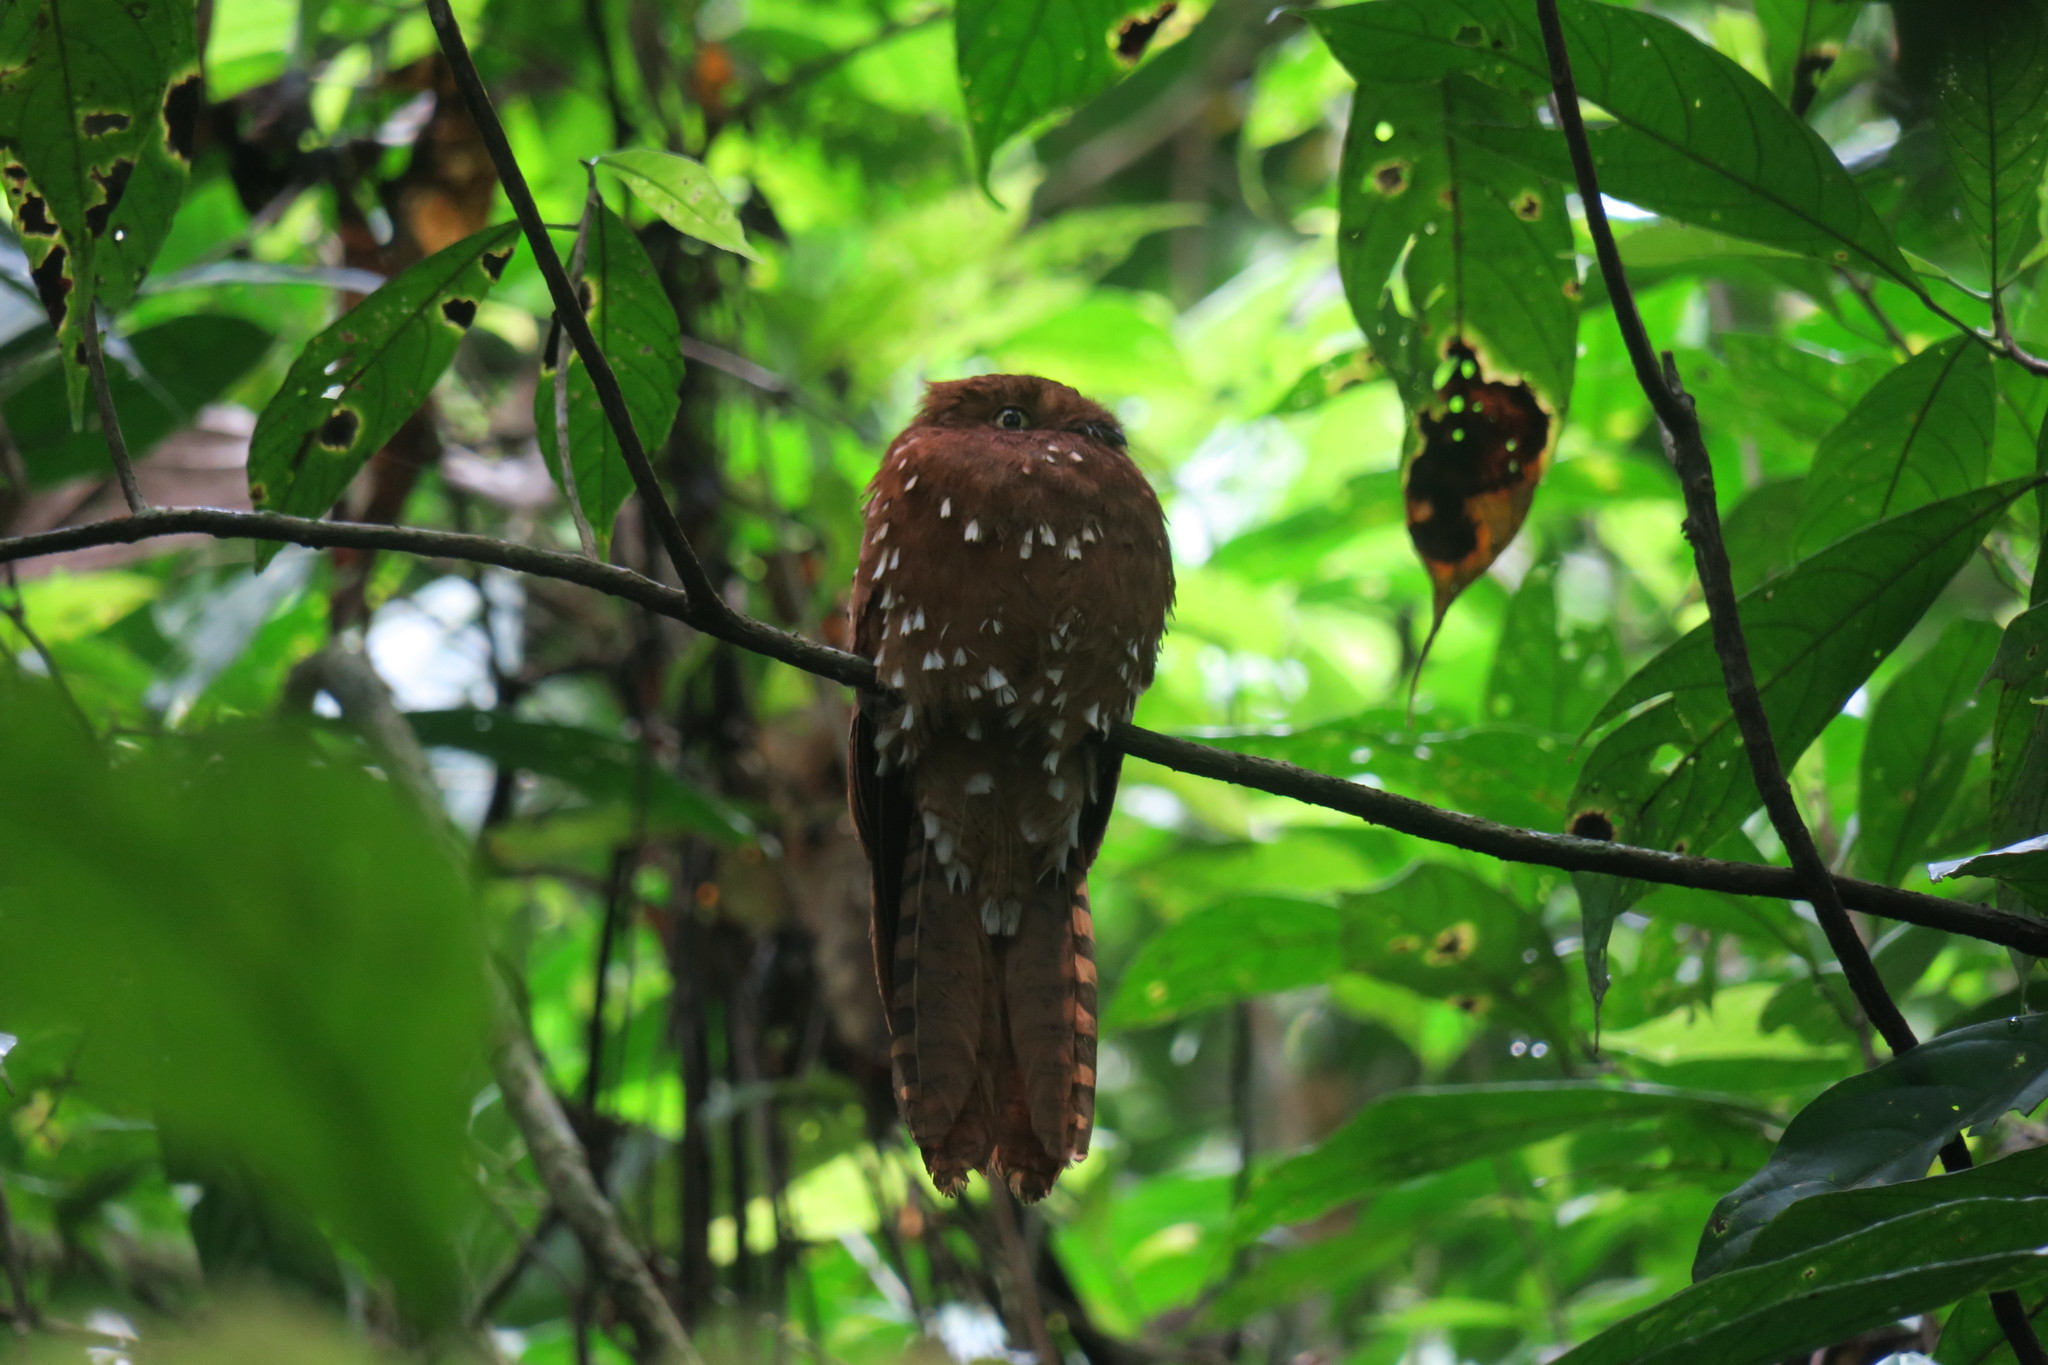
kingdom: Animalia
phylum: Chordata
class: Aves
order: Nyctibiiformes
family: Nyctibiidae
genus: Phyllaemulor
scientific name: Phyllaemulor bracteatus
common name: Rufous potoo
